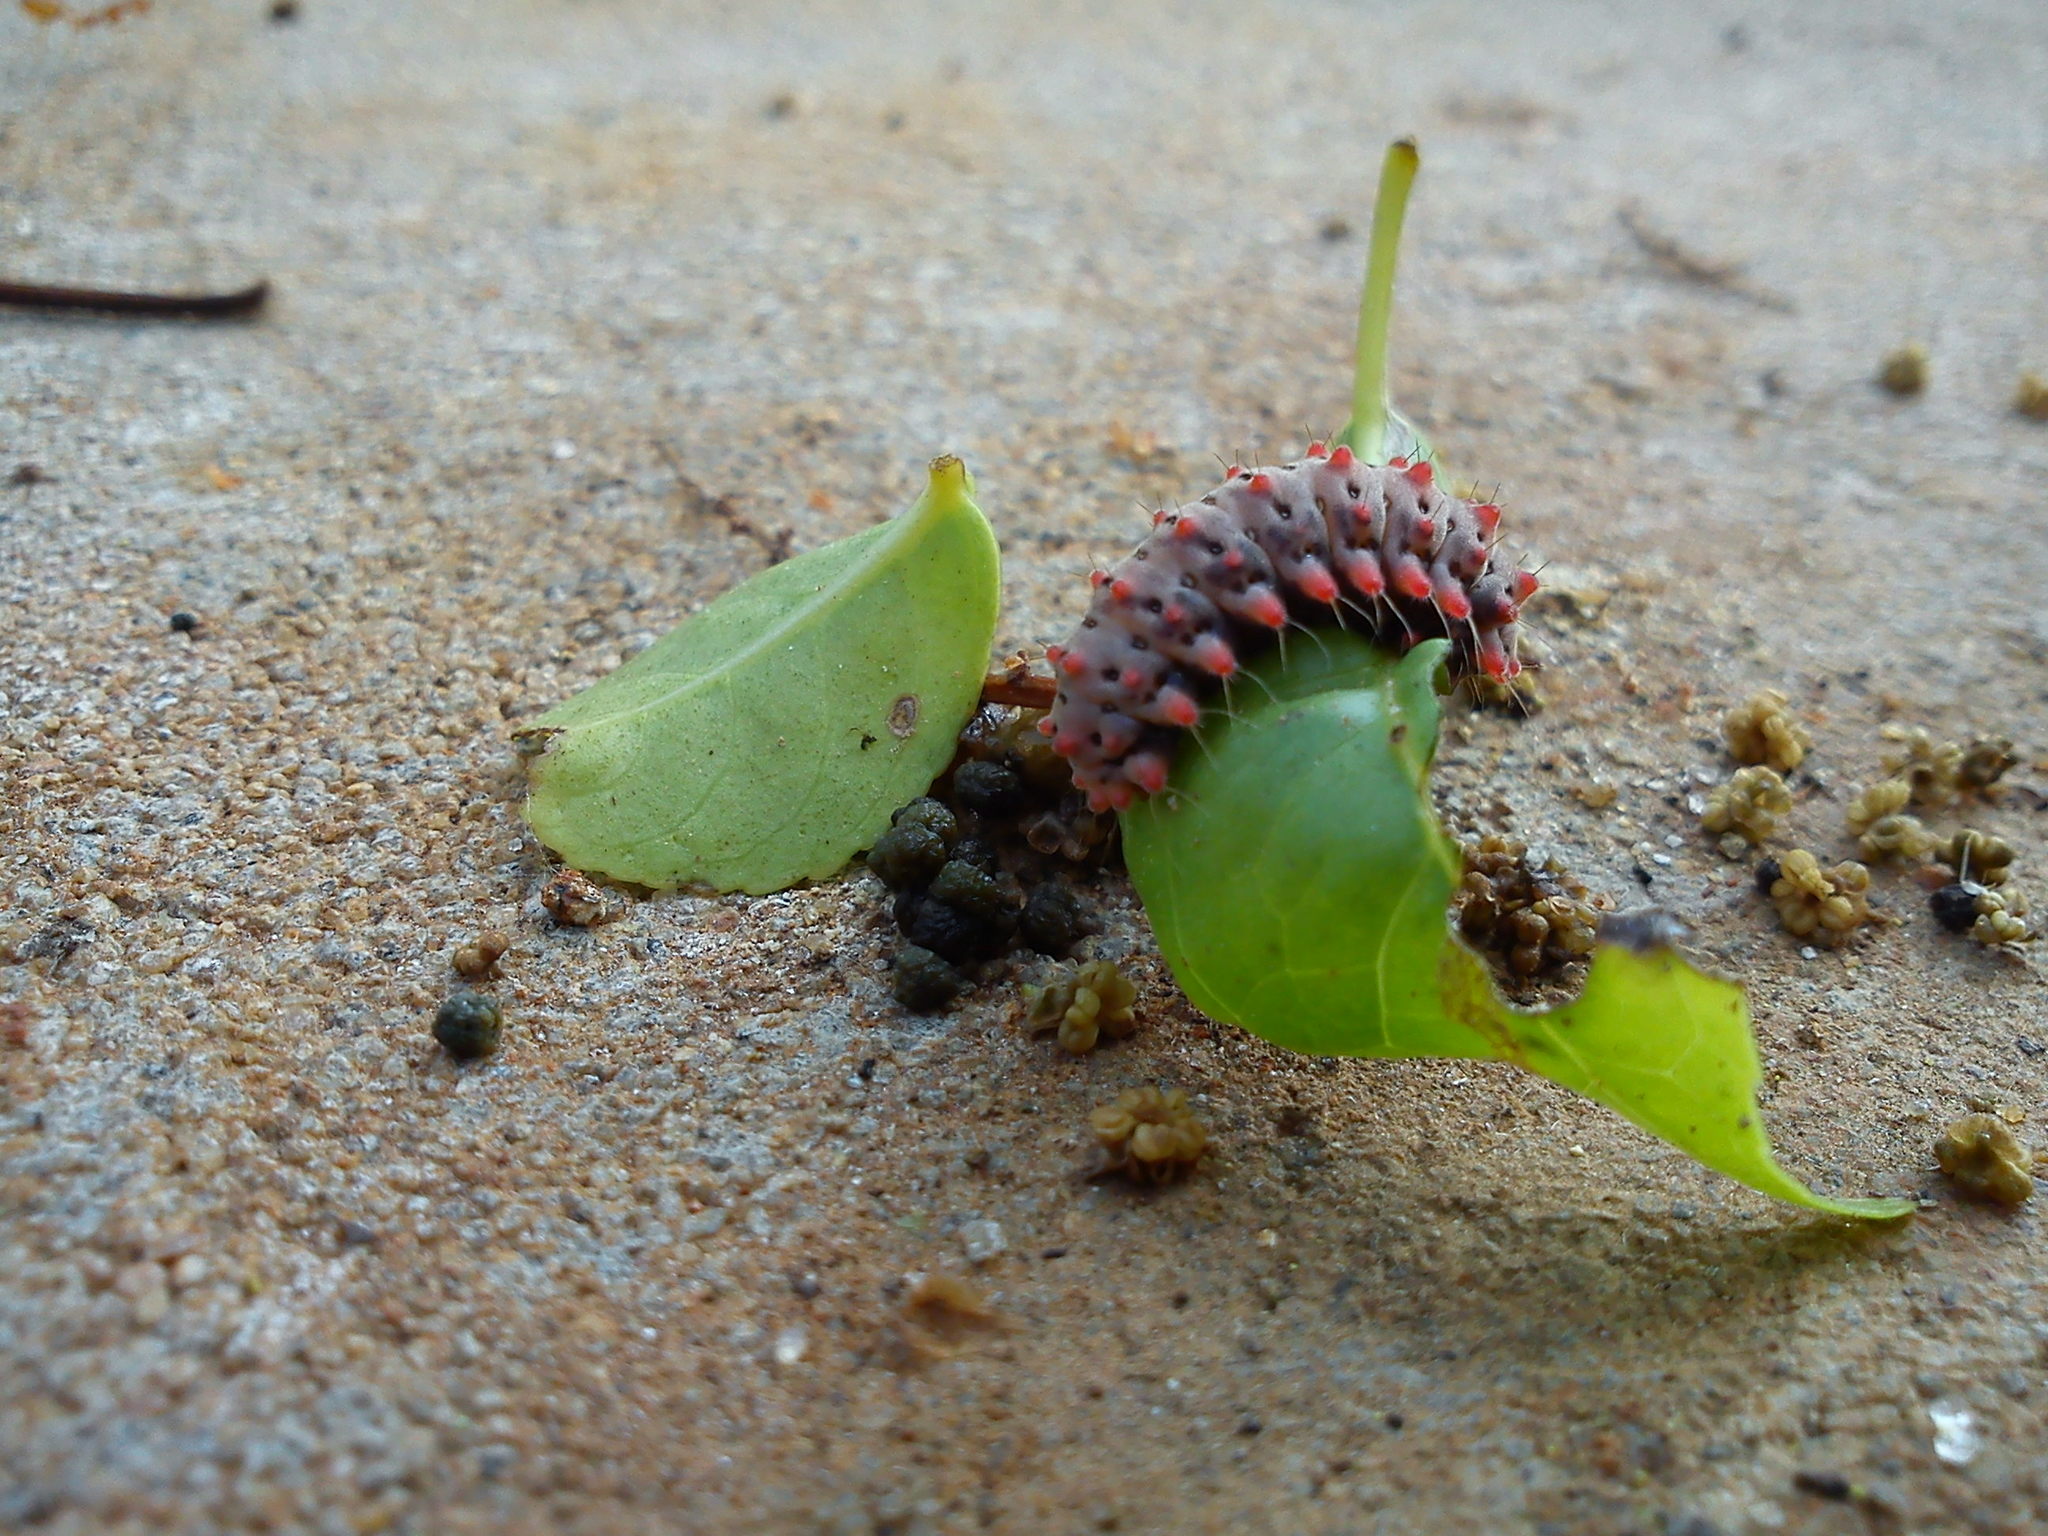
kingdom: Animalia
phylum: Arthropoda
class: Insecta
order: Lepidoptera
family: Zygaenidae
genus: Histia
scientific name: Histia flabellicornis
